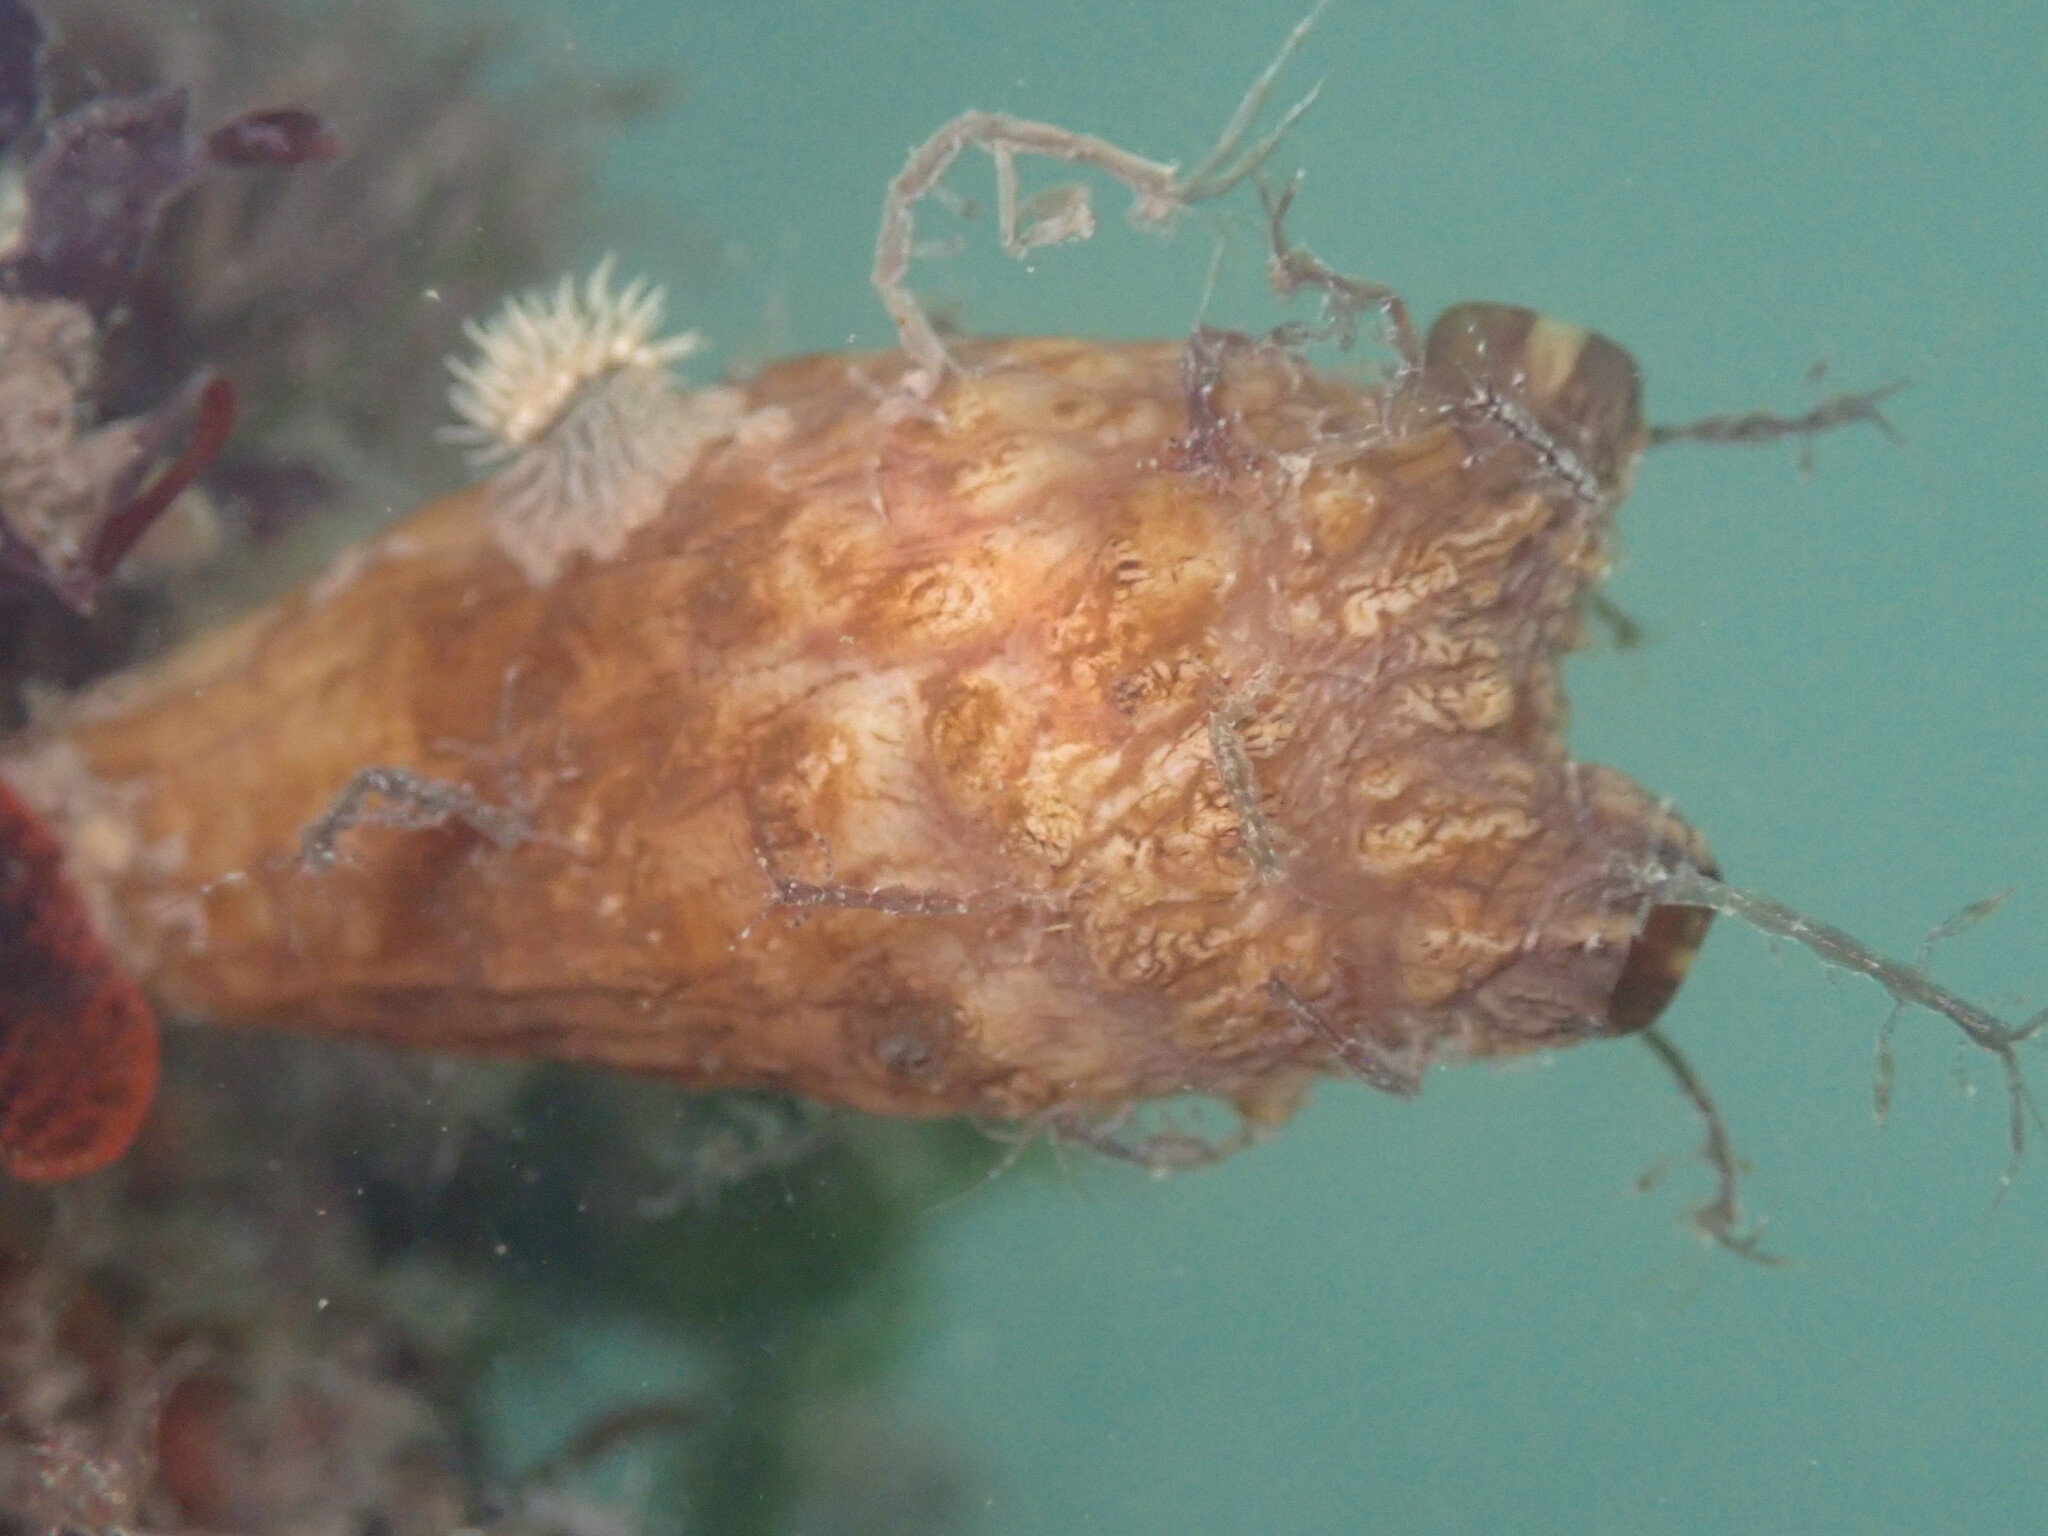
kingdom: Animalia
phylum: Chordata
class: Ascidiacea
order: Stolidobranchia
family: Styelidae
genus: Styela
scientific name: Styela clava
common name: Leathery sea squirt
